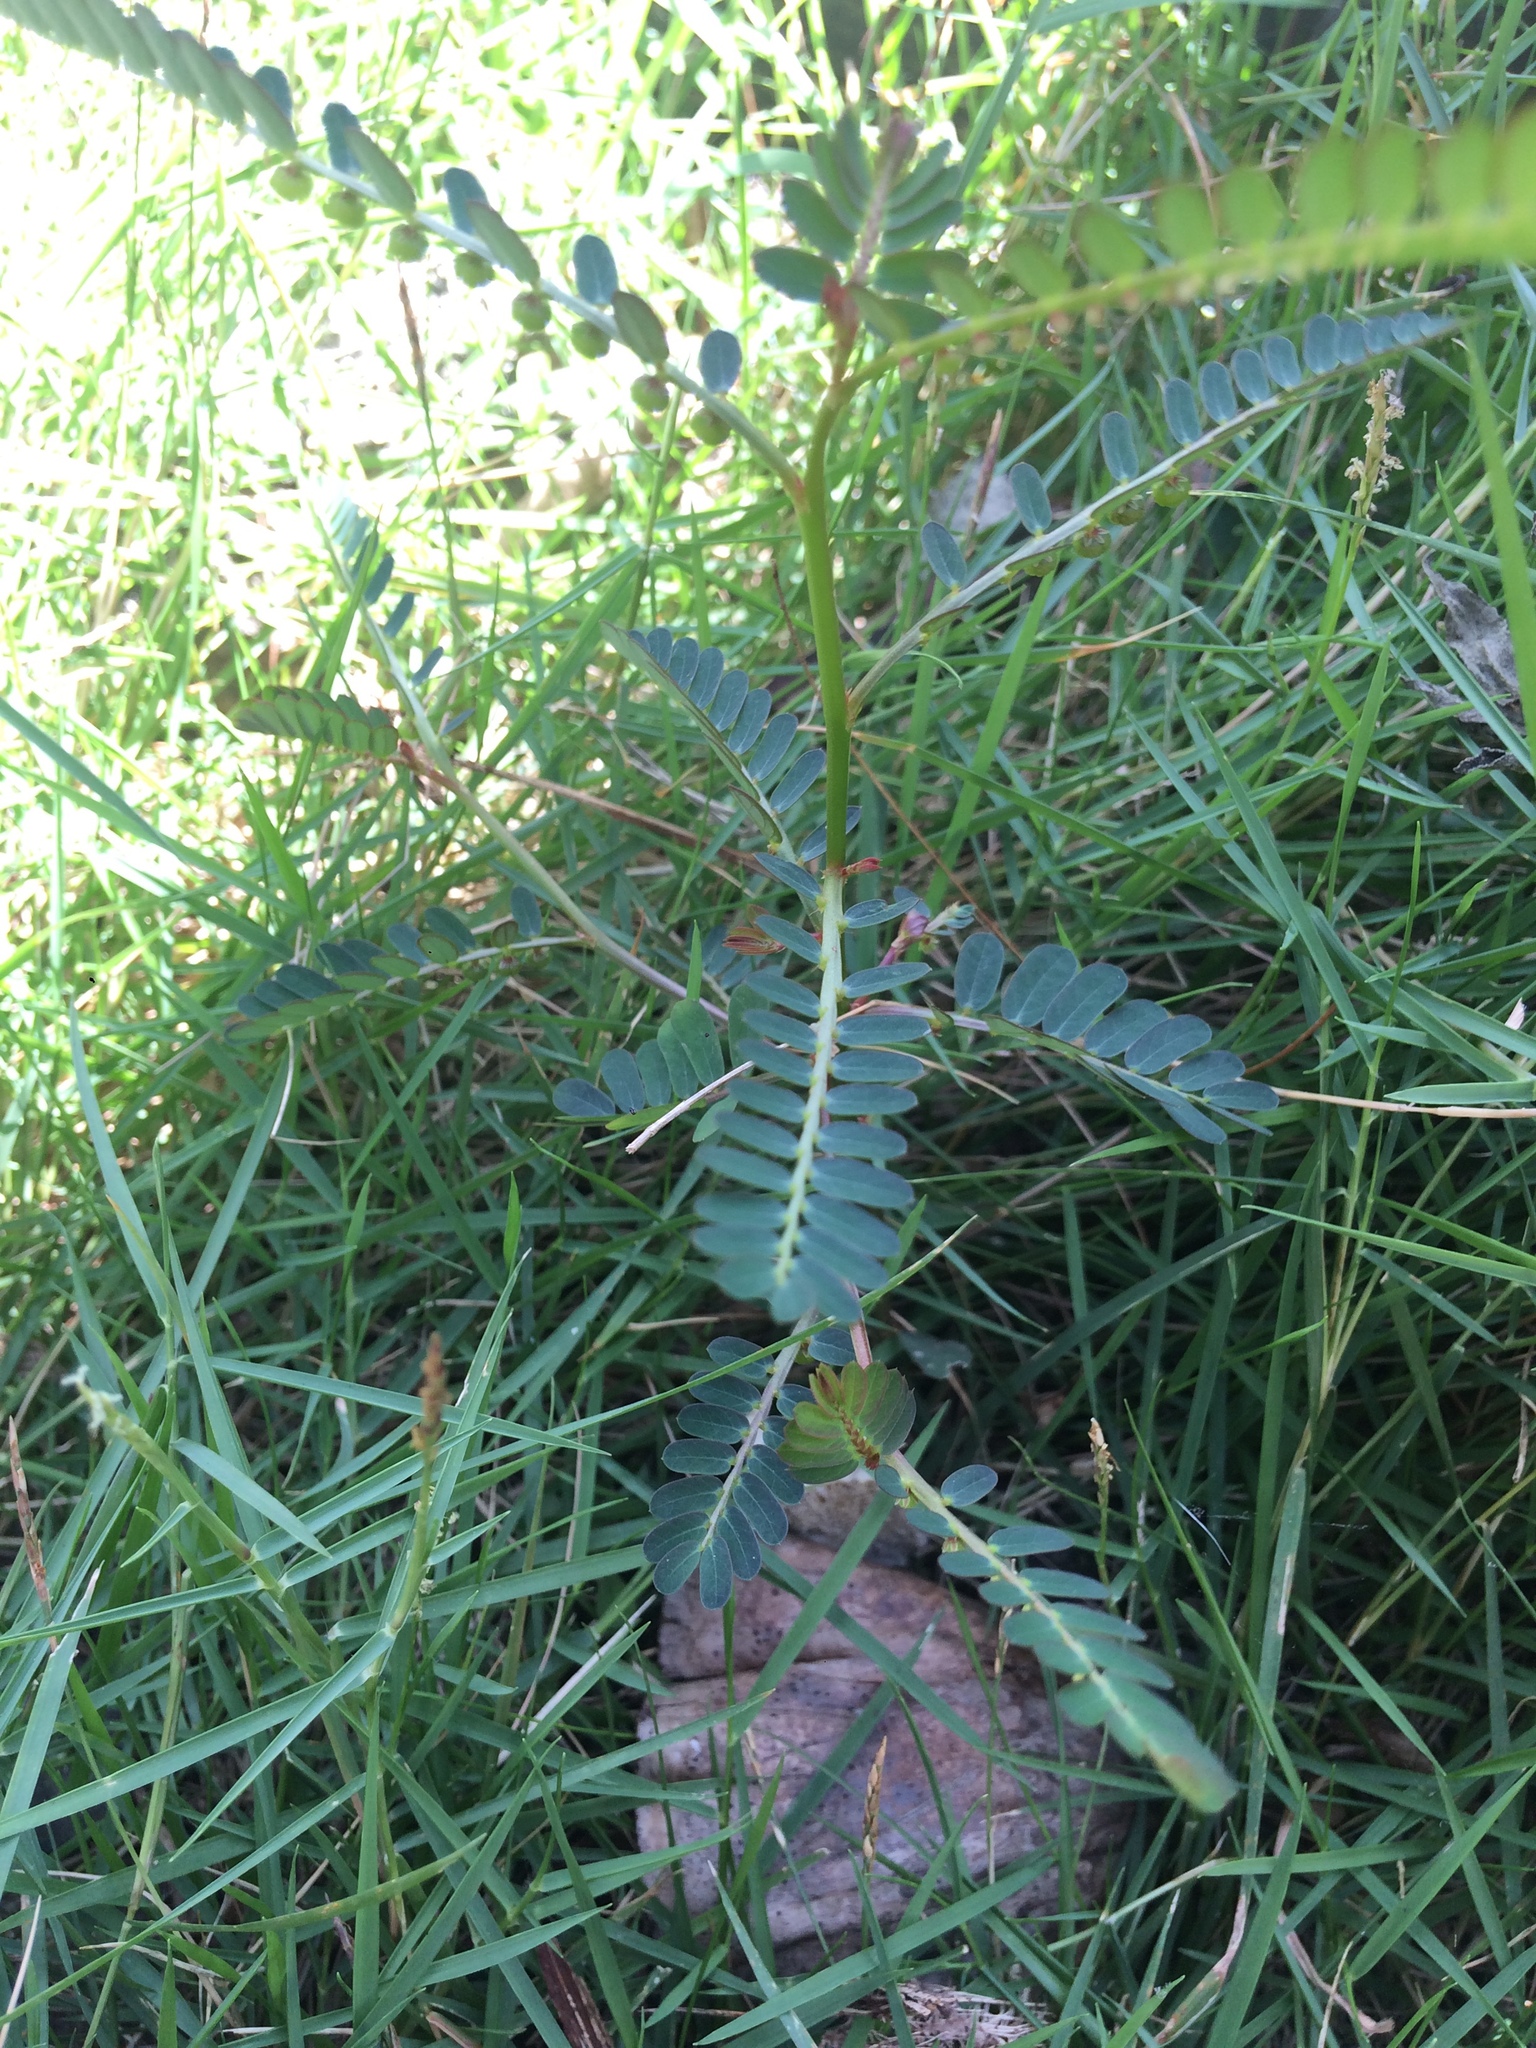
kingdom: Plantae
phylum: Tracheophyta
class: Magnoliopsida
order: Malpighiales
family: Phyllanthaceae
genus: Phyllanthus
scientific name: Phyllanthus urinaria
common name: Chamber bitter
